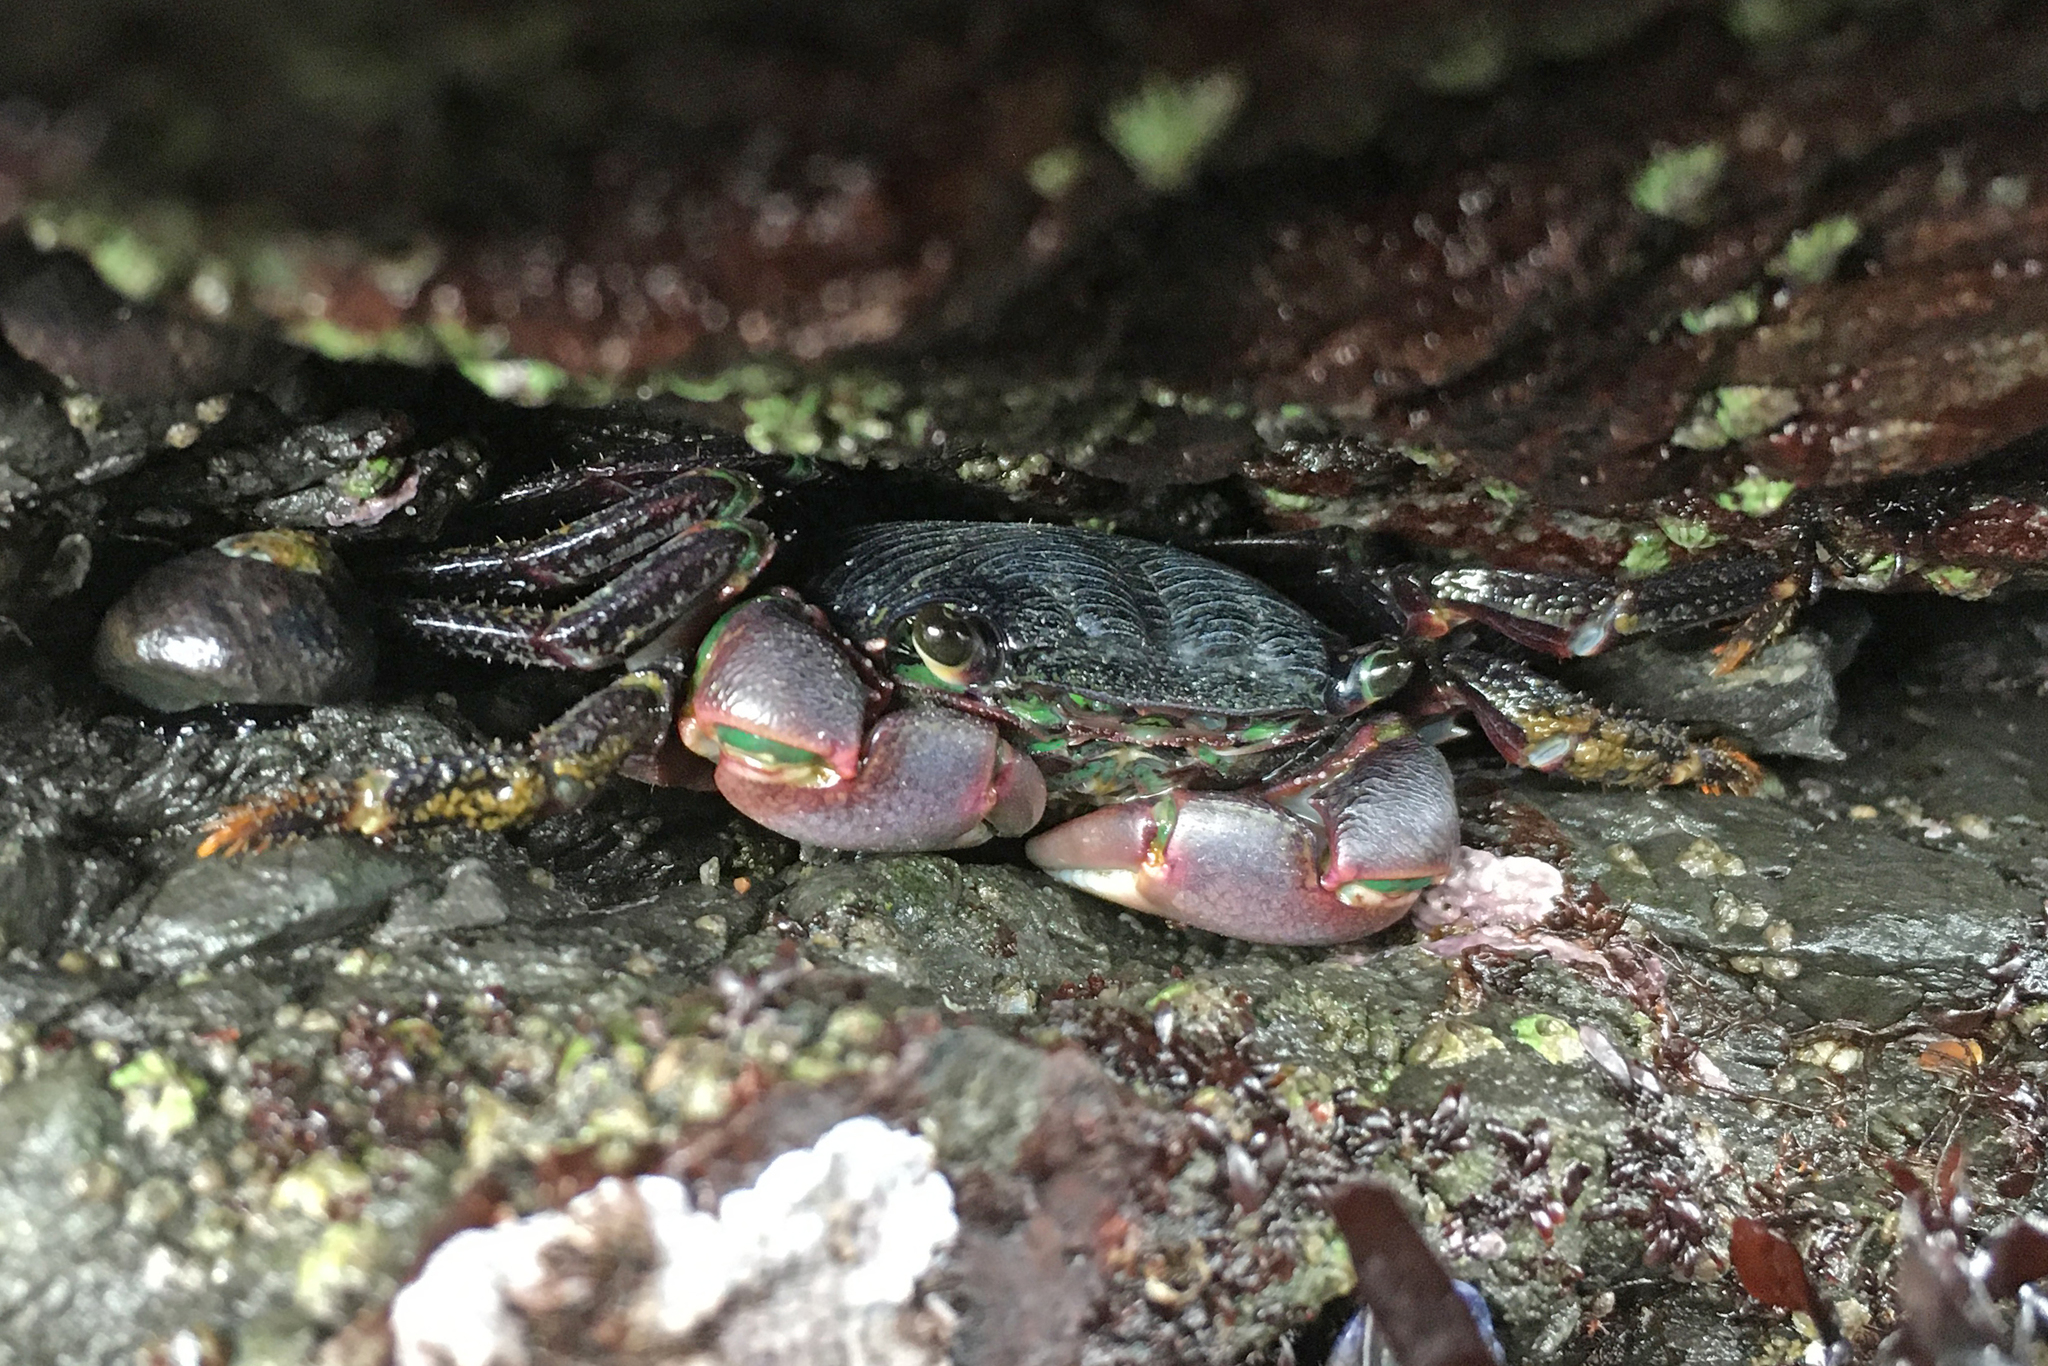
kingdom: Animalia
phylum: Arthropoda
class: Malacostraca
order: Decapoda
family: Grapsidae
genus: Pachygrapsus
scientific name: Pachygrapsus crassipes
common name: Striped shore crab
